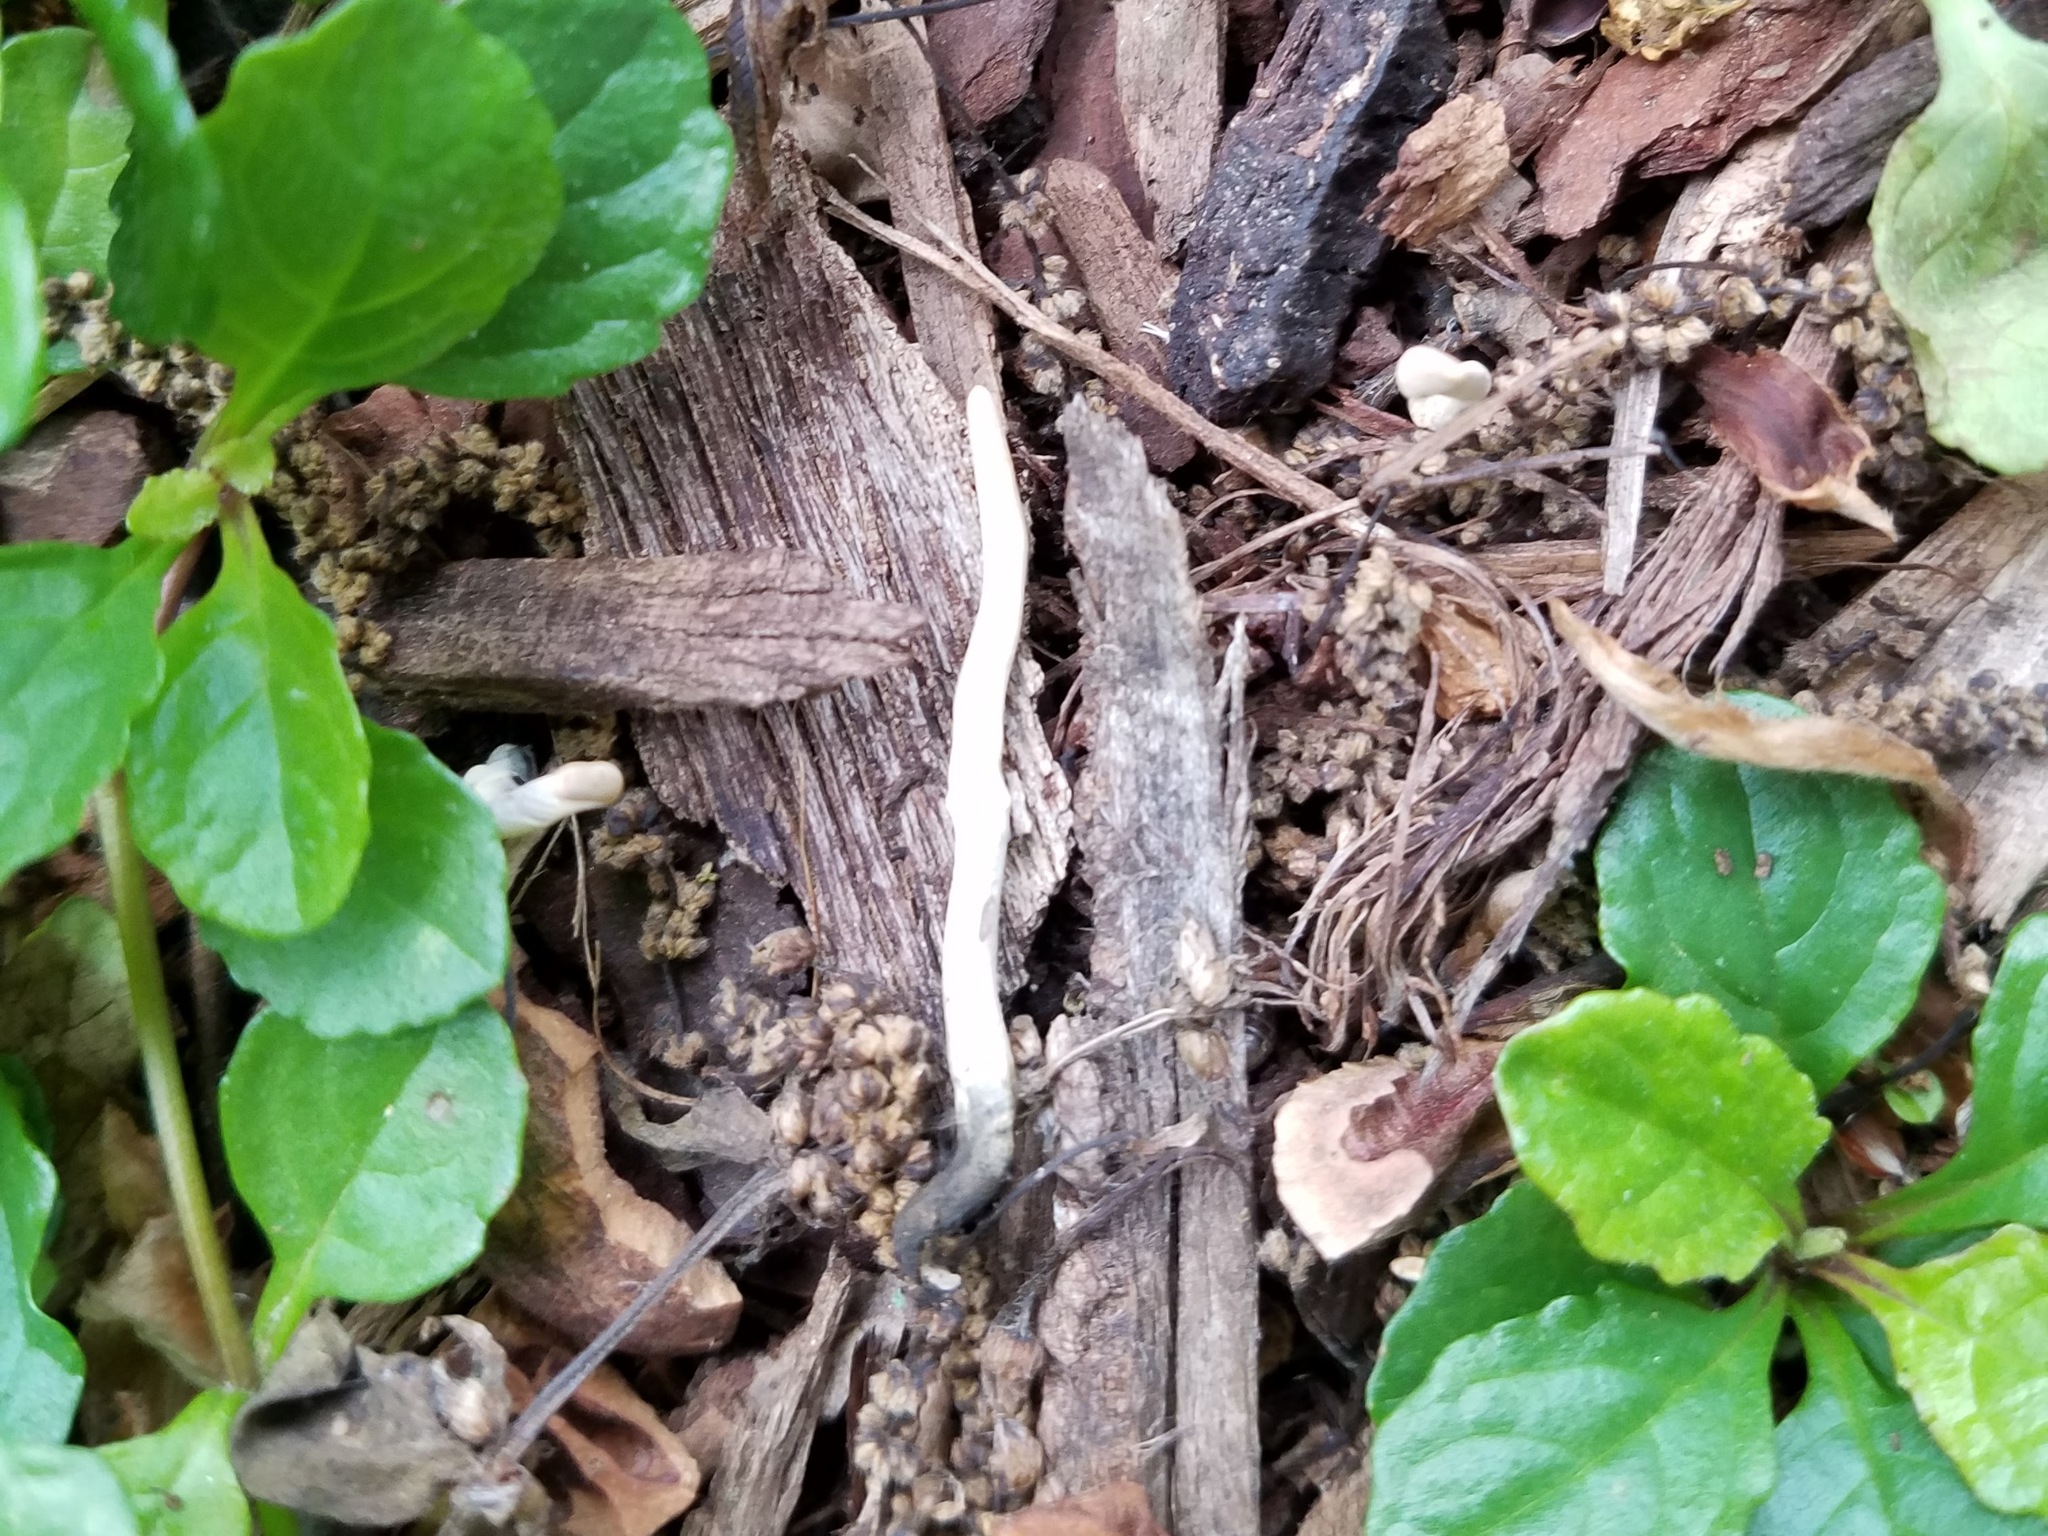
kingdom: Fungi
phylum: Ascomycota
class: Sordariomycetes
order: Xylariales
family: Xylariaceae
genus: Xylaria
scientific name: Xylaria hypoxylon
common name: Candle-snuff fungus
